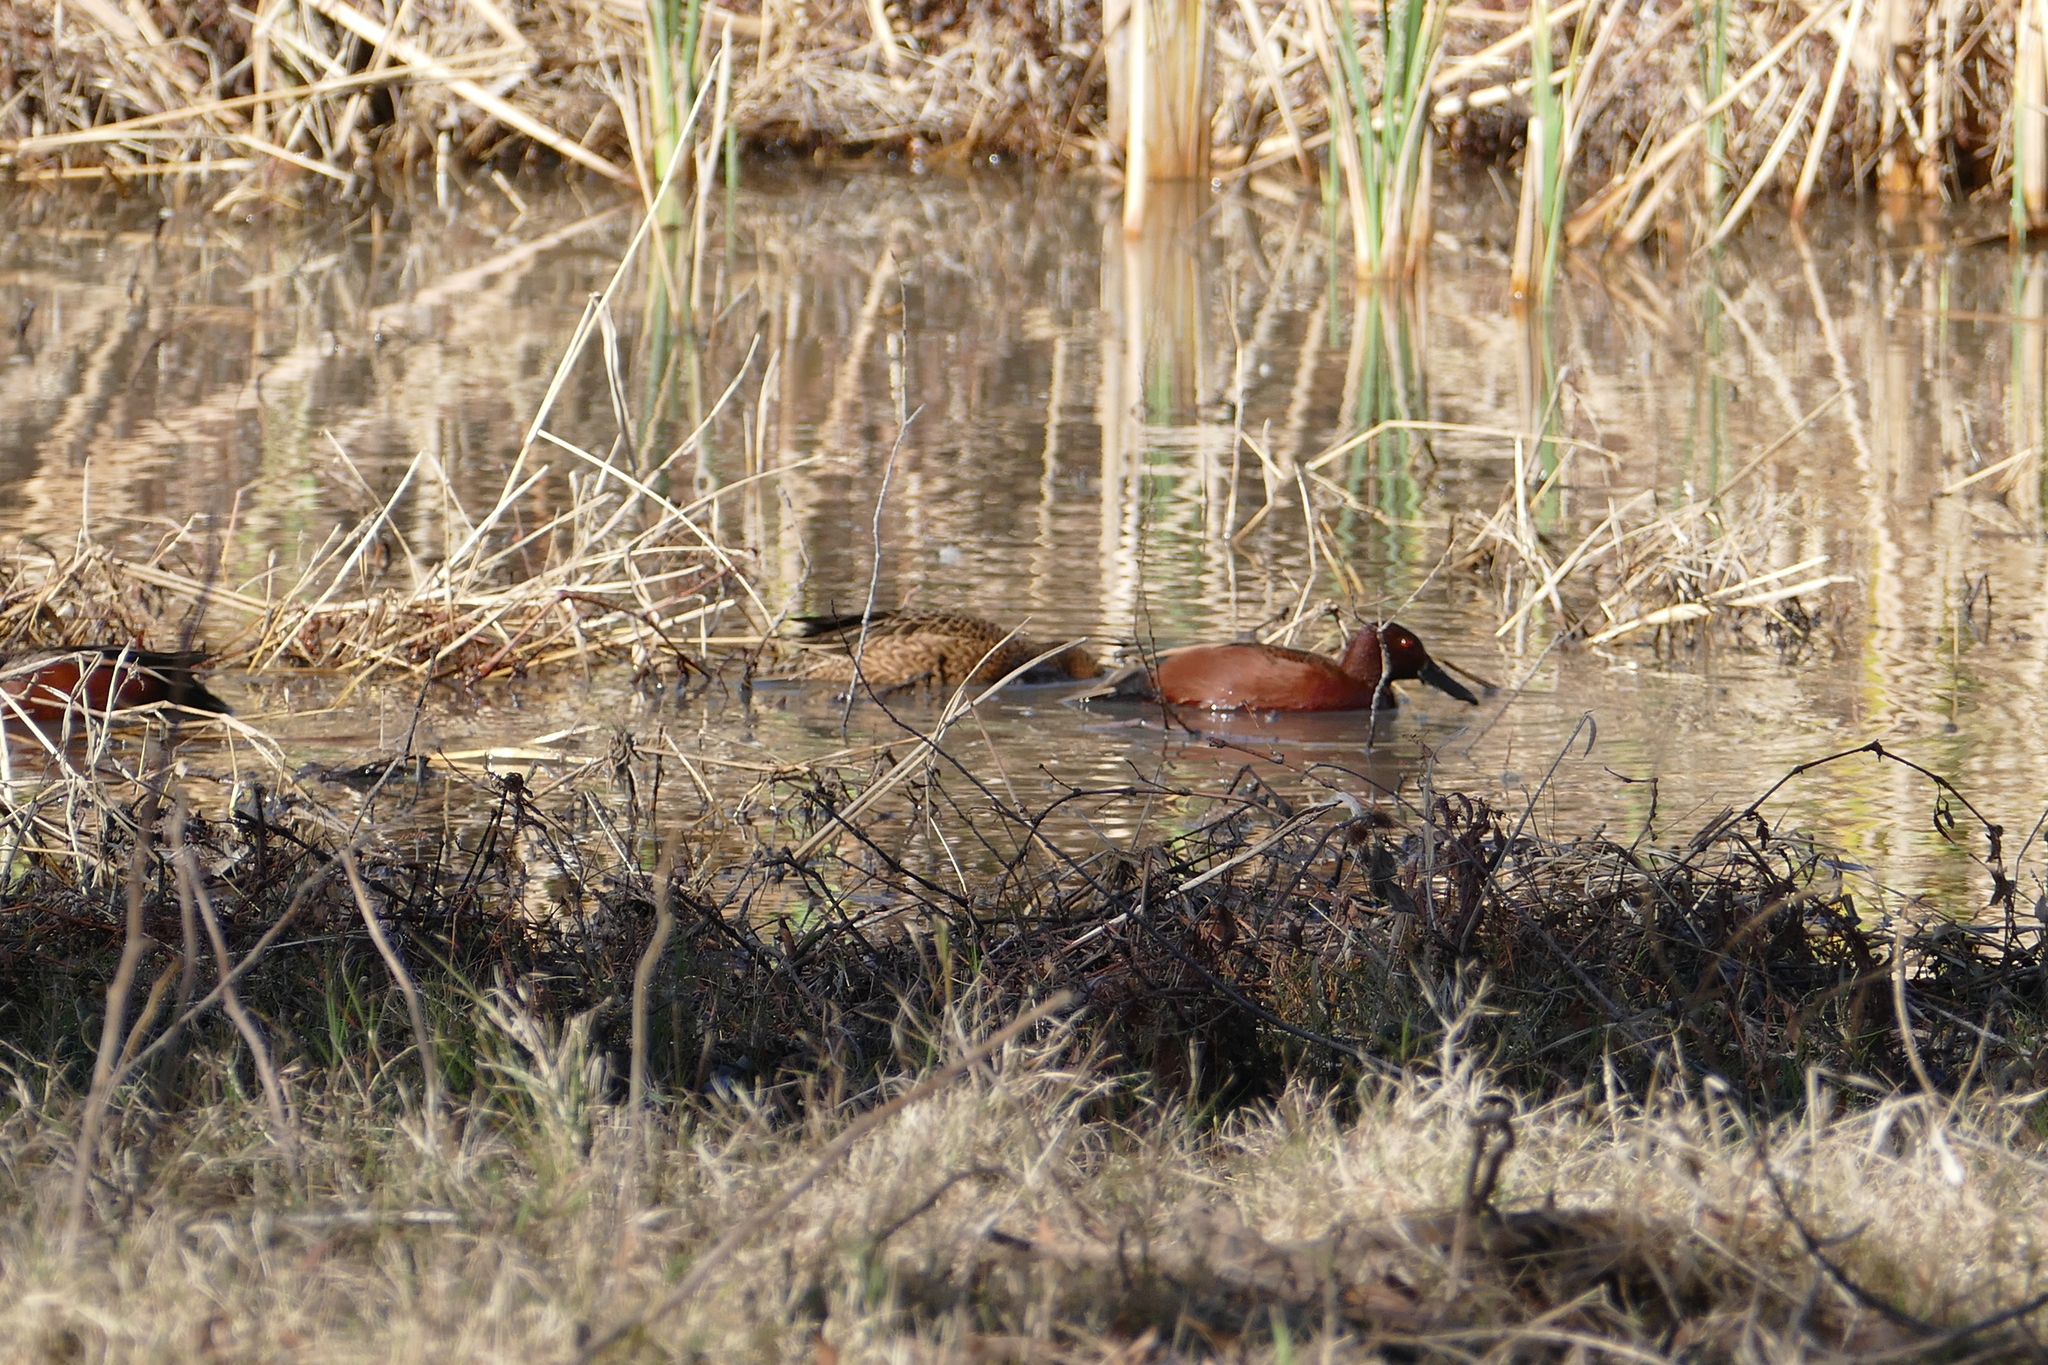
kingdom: Animalia
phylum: Chordata
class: Aves
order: Anseriformes
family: Anatidae
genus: Spatula
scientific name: Spatula cyanoptera
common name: Cinnamon teal
